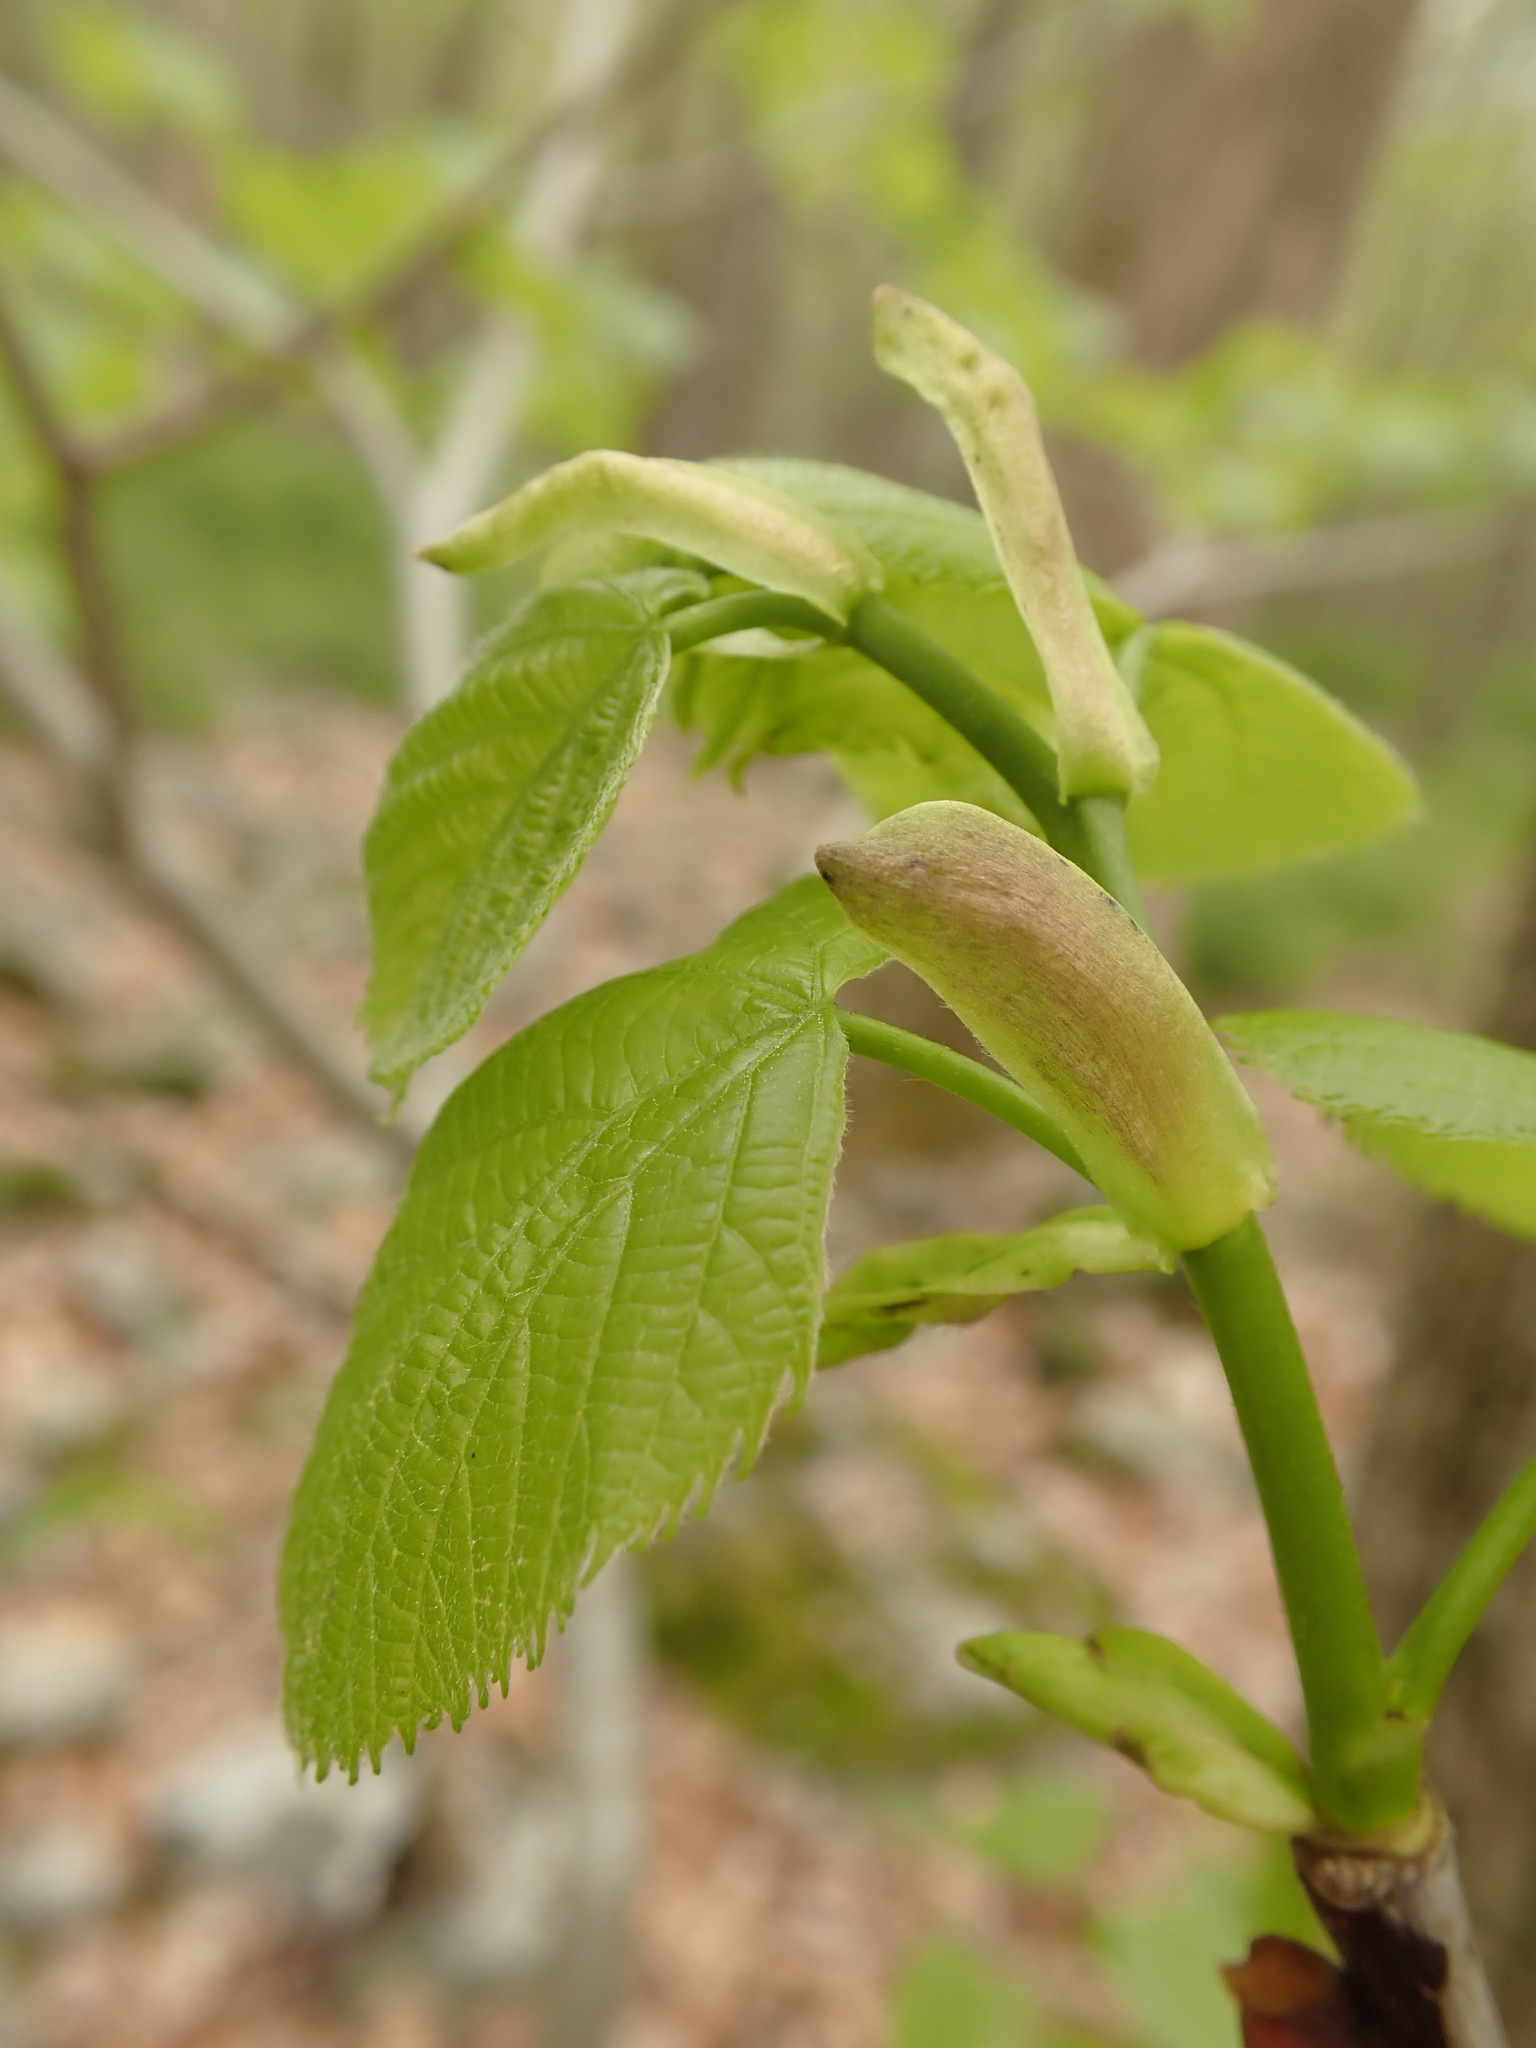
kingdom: Plantae
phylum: Tracheophyta
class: Magnoliopsida
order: Malvales
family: Malvaceae
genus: Tilia
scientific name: Tilia americana
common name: Basswood
